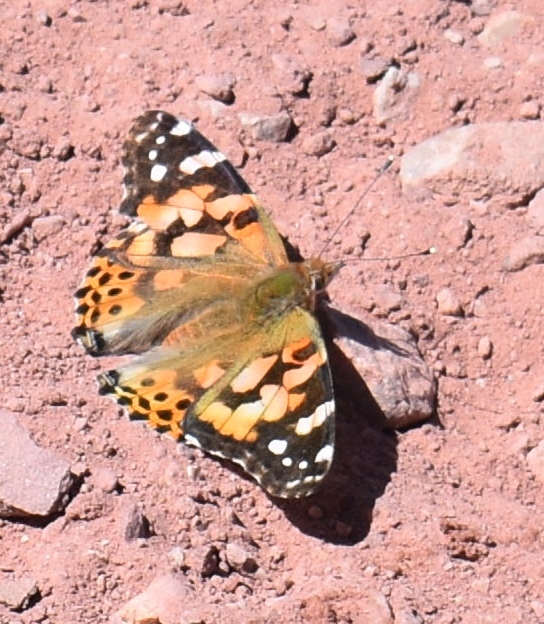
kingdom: Animalia
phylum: Arthropoda
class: Insecta
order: Lepidoptera
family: Nymphalidae
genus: Vanessa
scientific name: Vanessa cardui
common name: Painted lady
